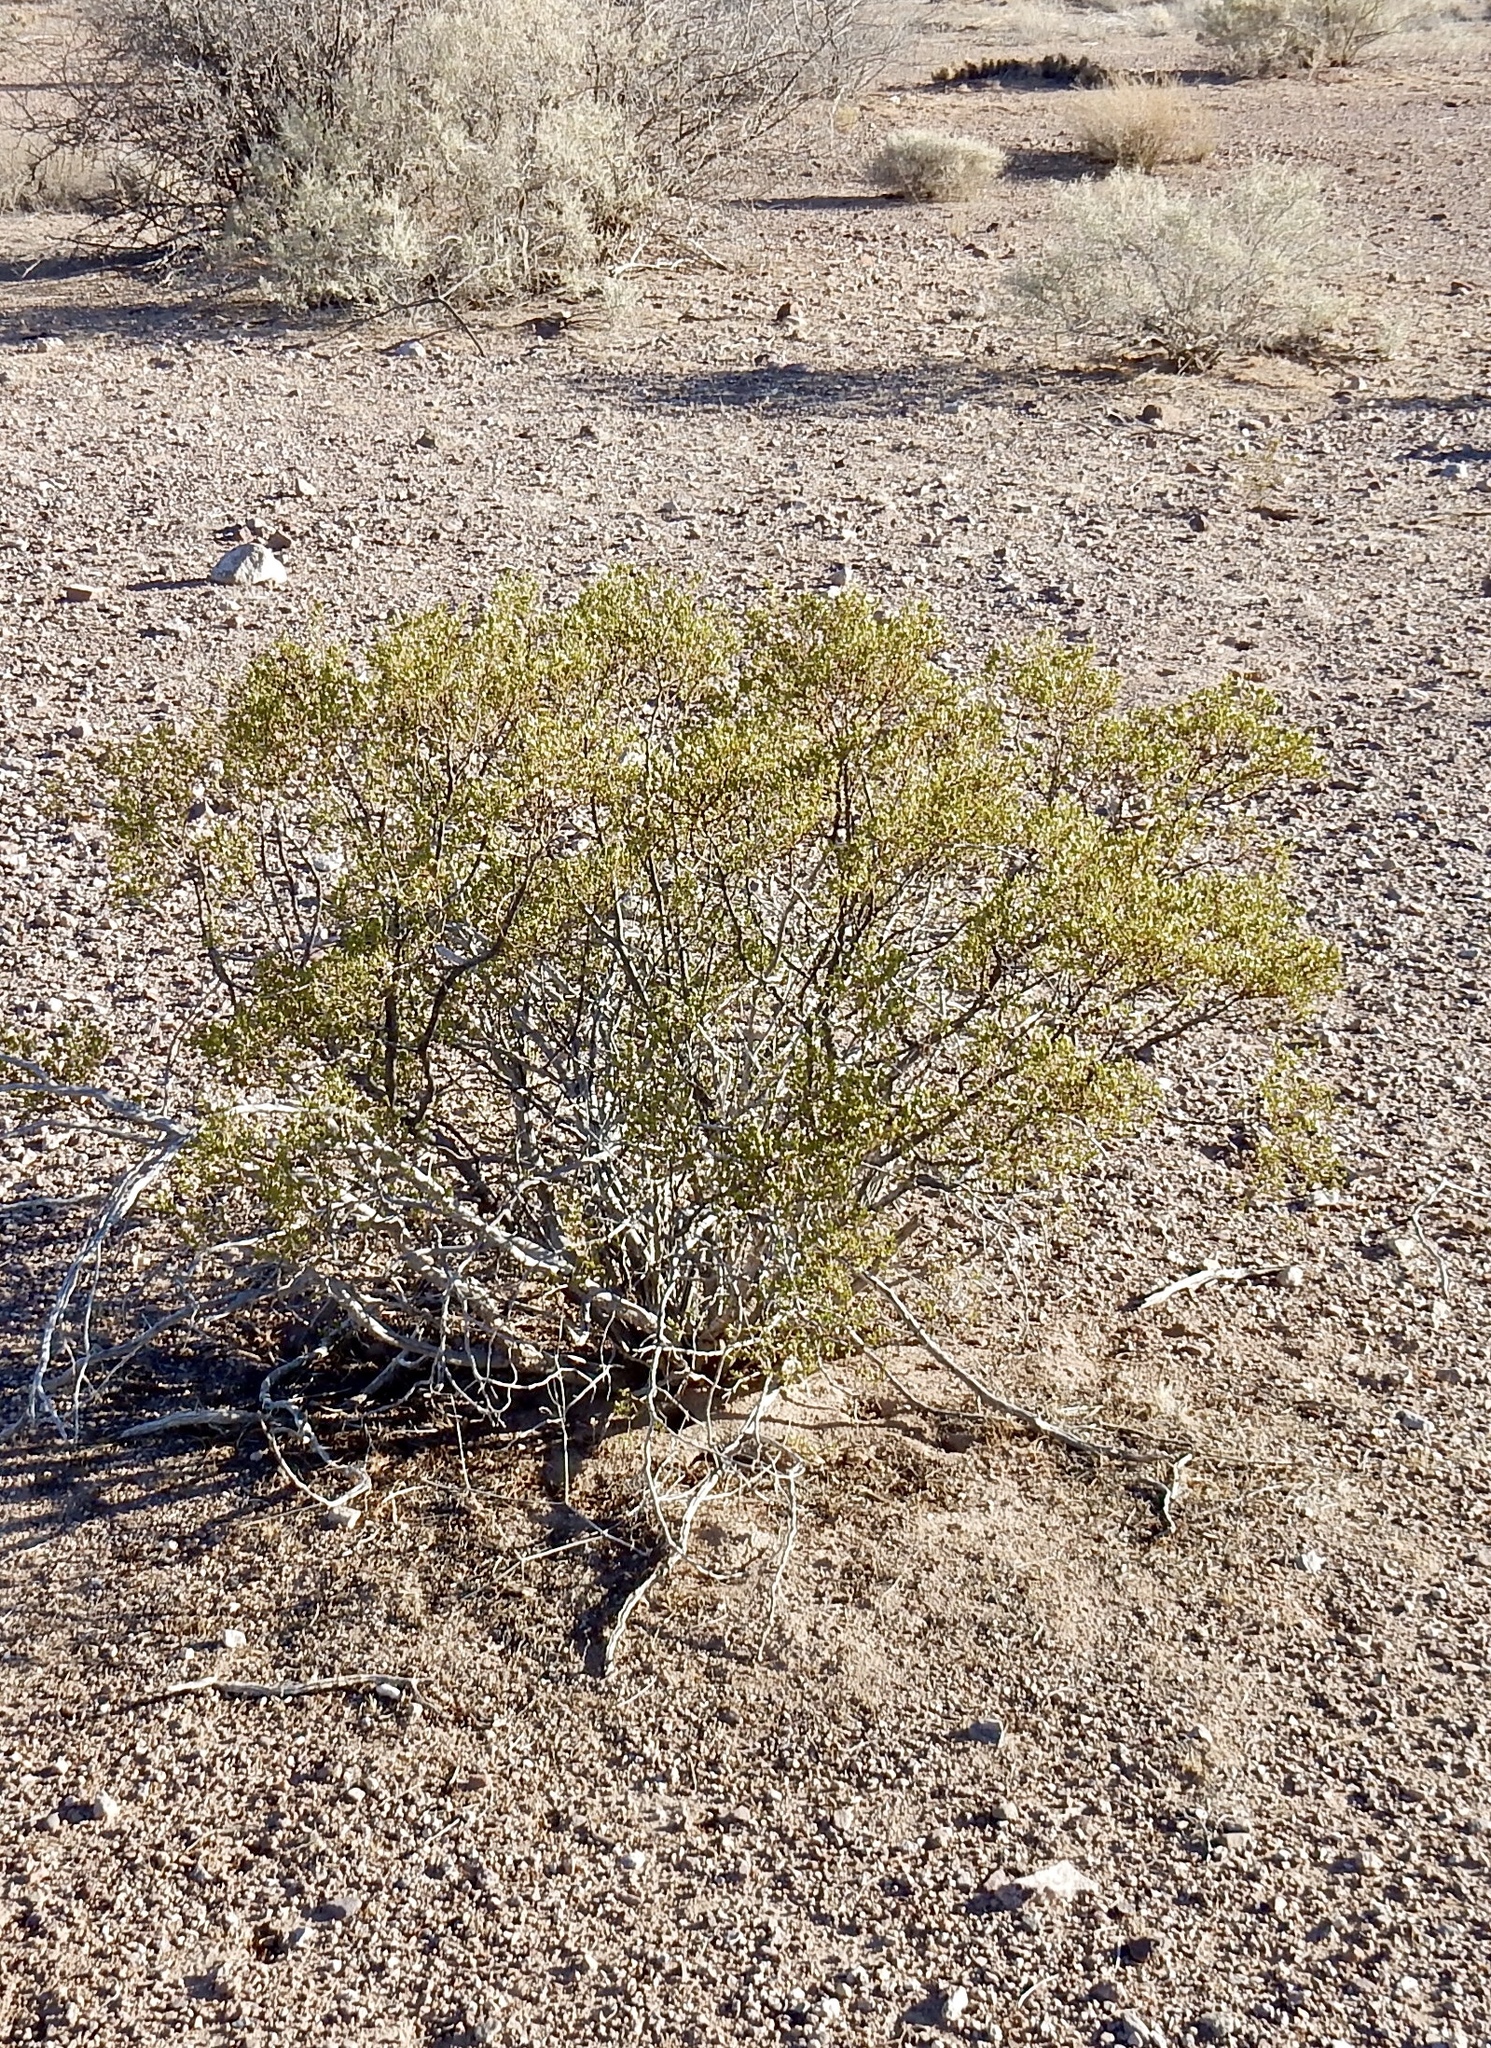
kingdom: Plantae
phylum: Tracheophyta
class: Magnoliopsida
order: Zygophyllales
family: Zygophyllaceae
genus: Larrea
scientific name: Larrea tridentata
